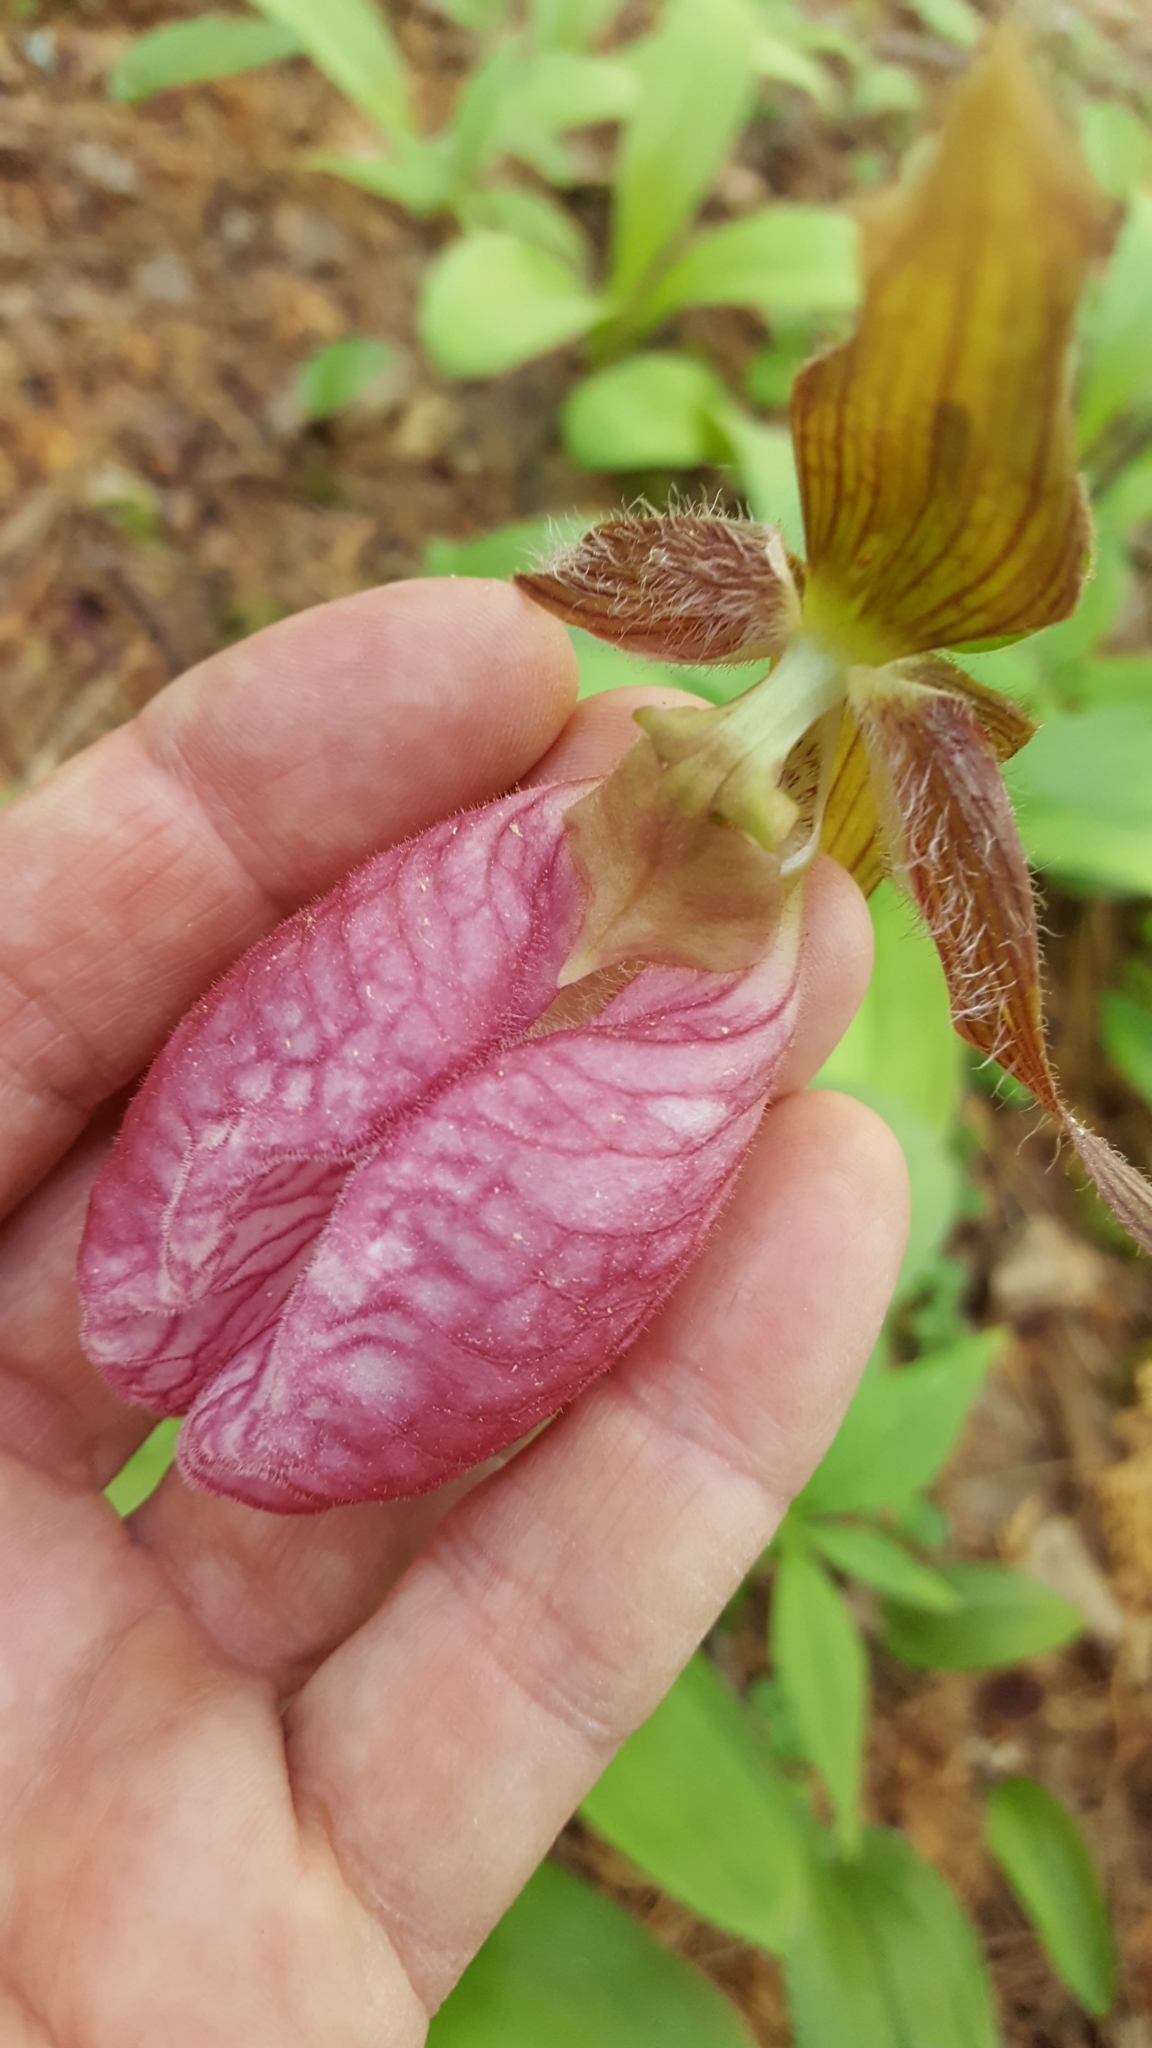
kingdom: Plantae
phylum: Tracheophyta
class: Liliopsida
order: Asparagales
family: Orchidaceae
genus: Cypripedium
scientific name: Cypripedium acaule
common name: Pink lady's-slipper
